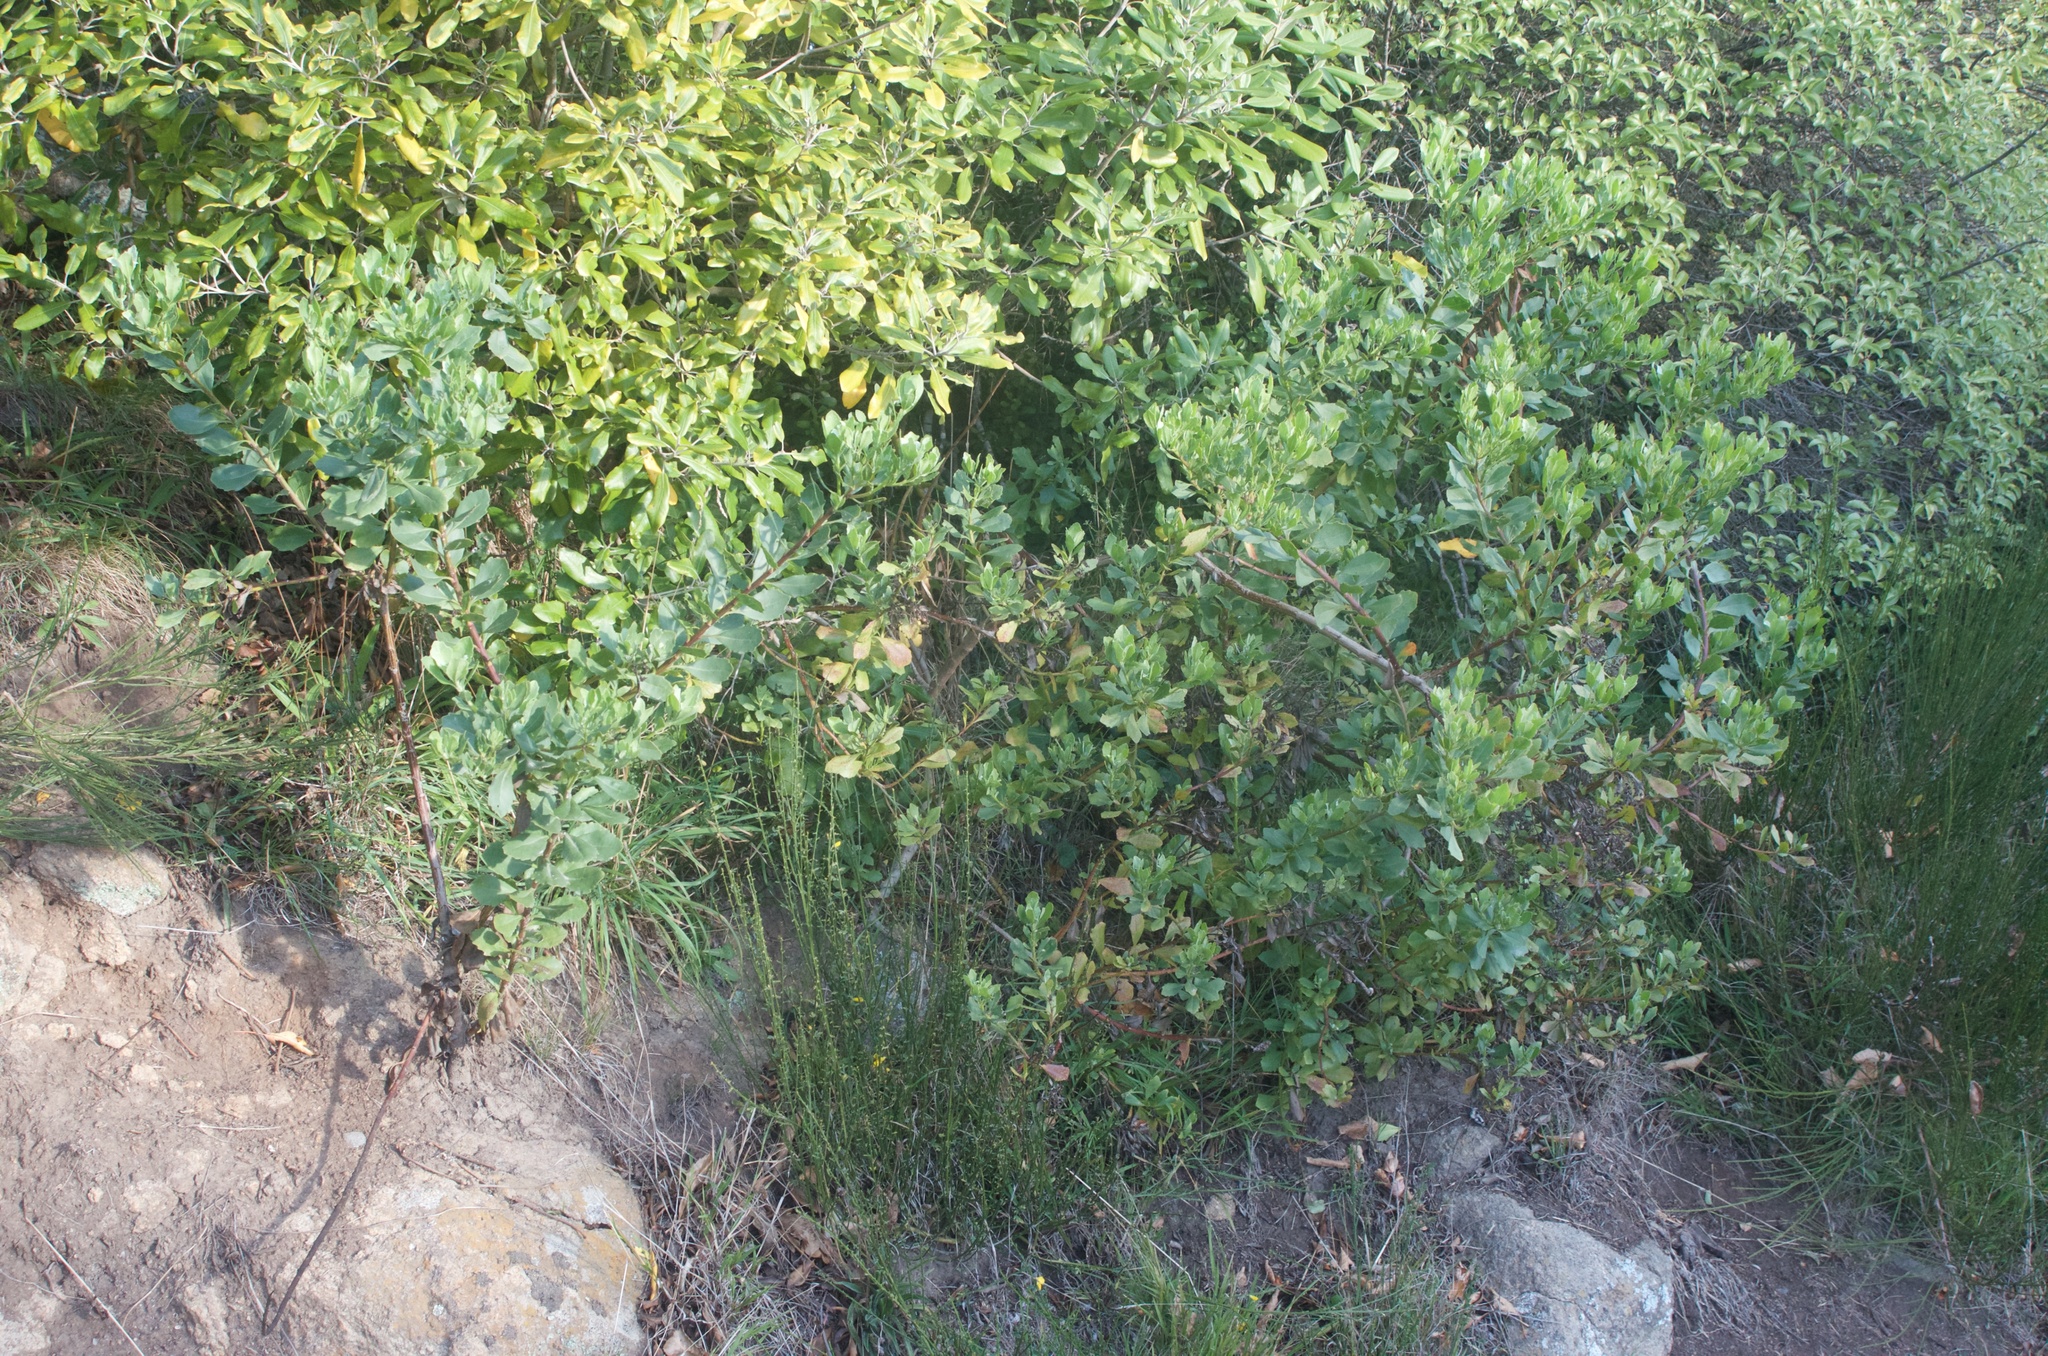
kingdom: Plantae
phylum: Tracheophyta
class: Magnoliopsida
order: Asterales
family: Asteraceae
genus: Osteospermum
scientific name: Osteospermum moniliferum
